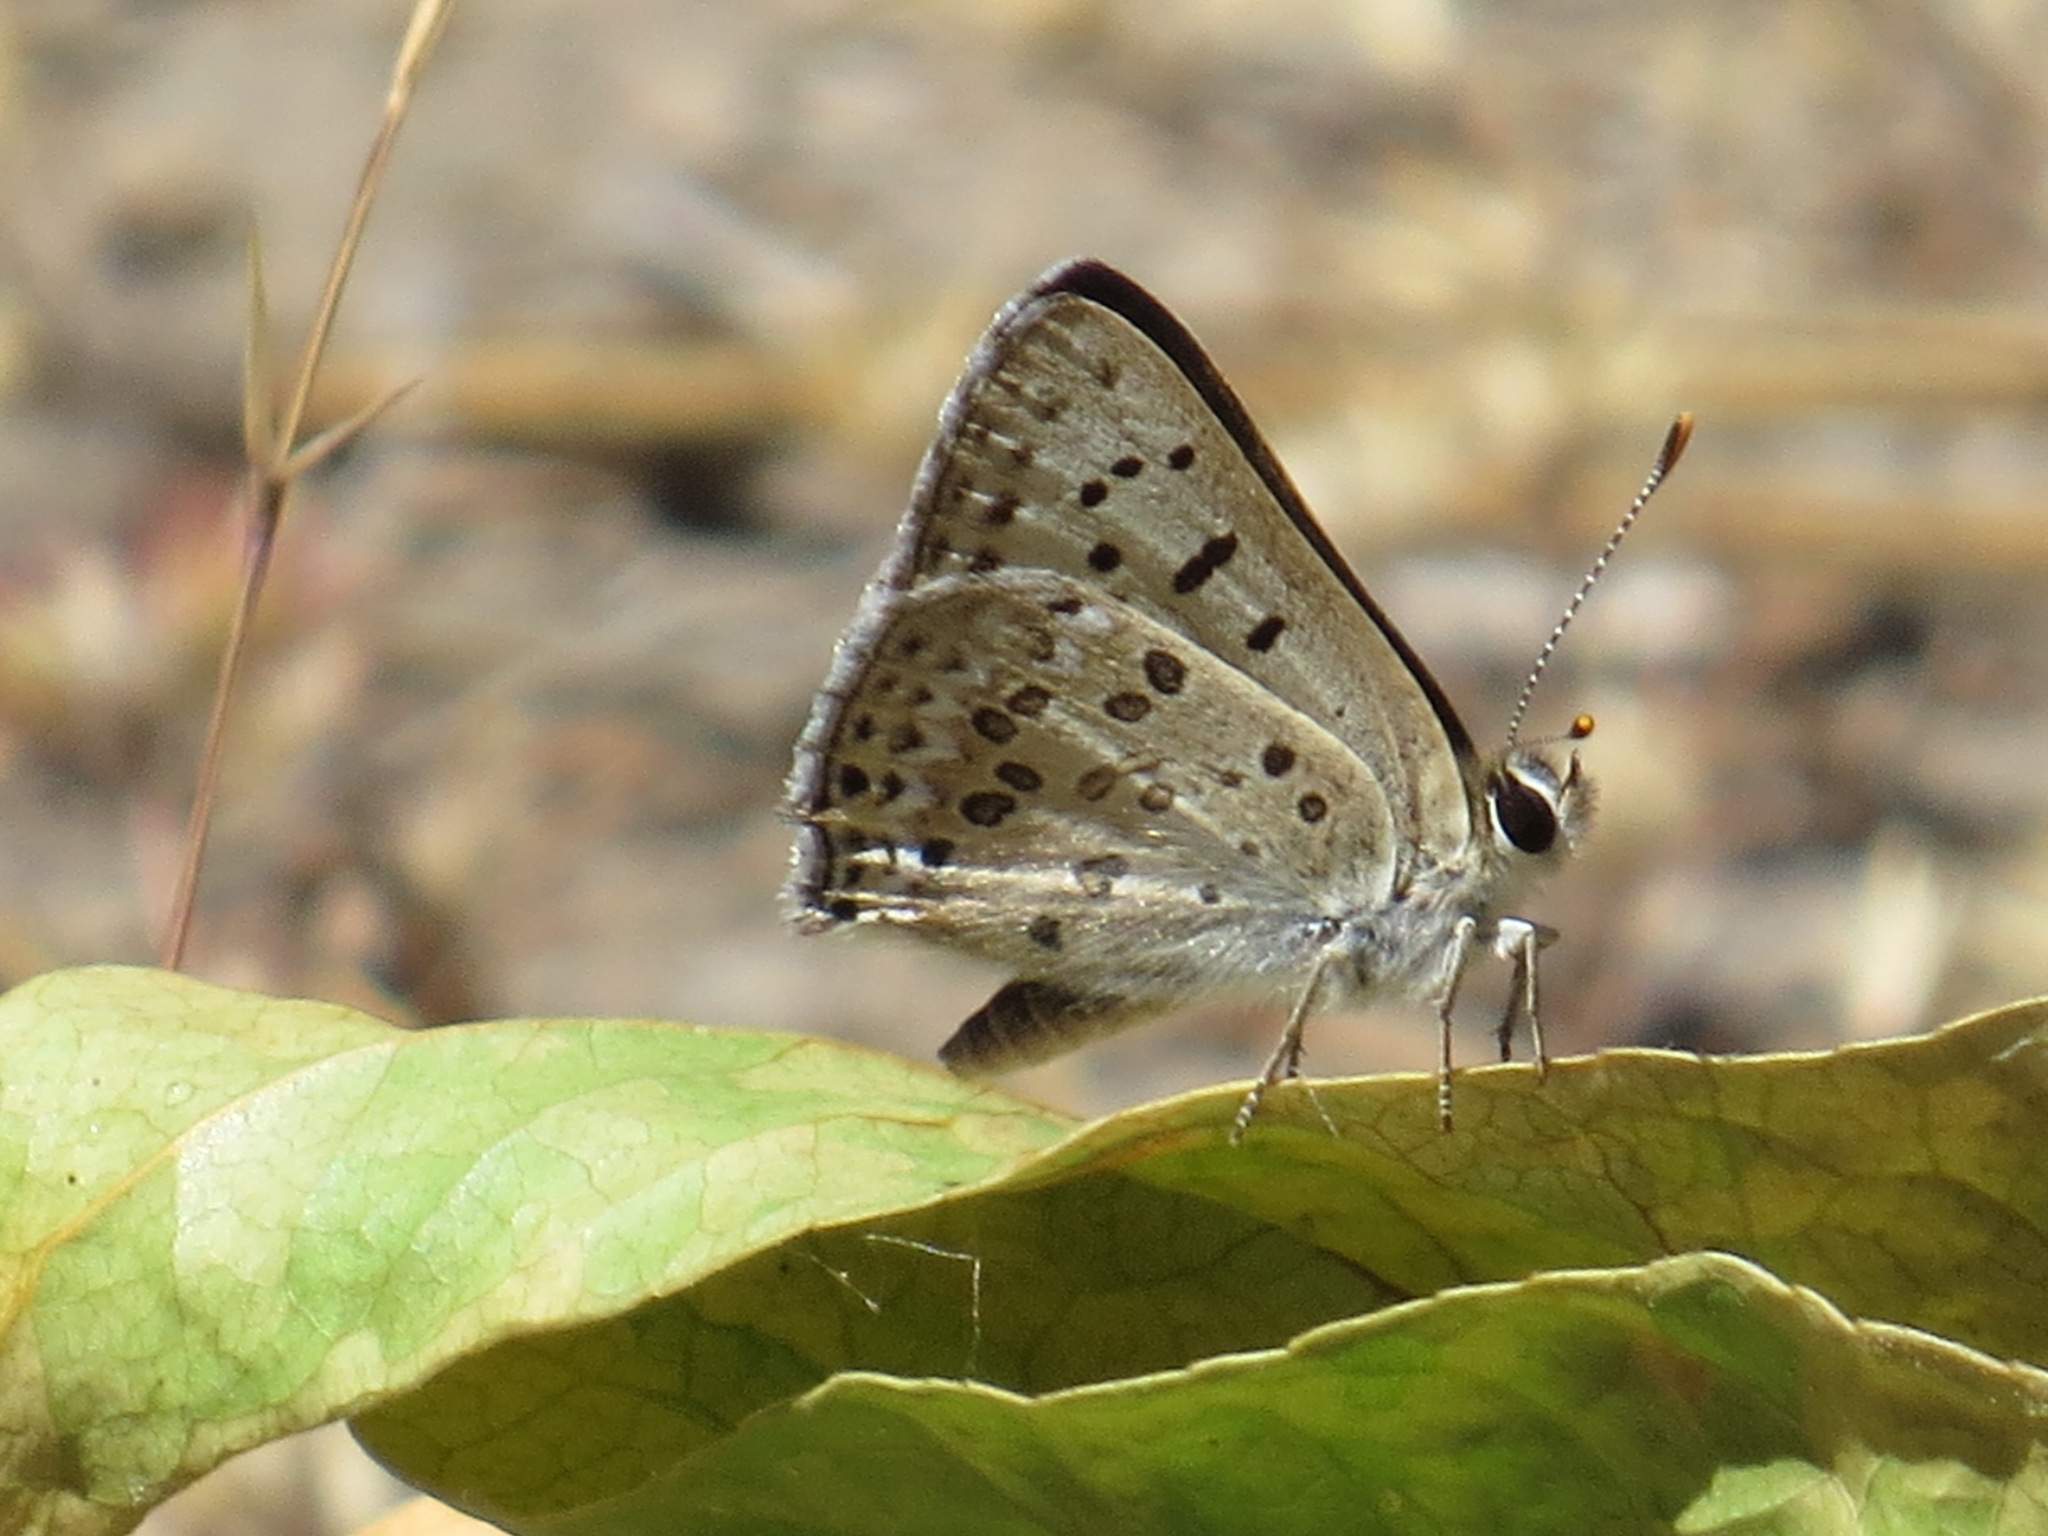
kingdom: Animalia
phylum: Arthropoda
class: Insecta
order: Lepidoptera
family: Lycaenidae
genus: Tharsalea
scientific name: Tharsalea editha
